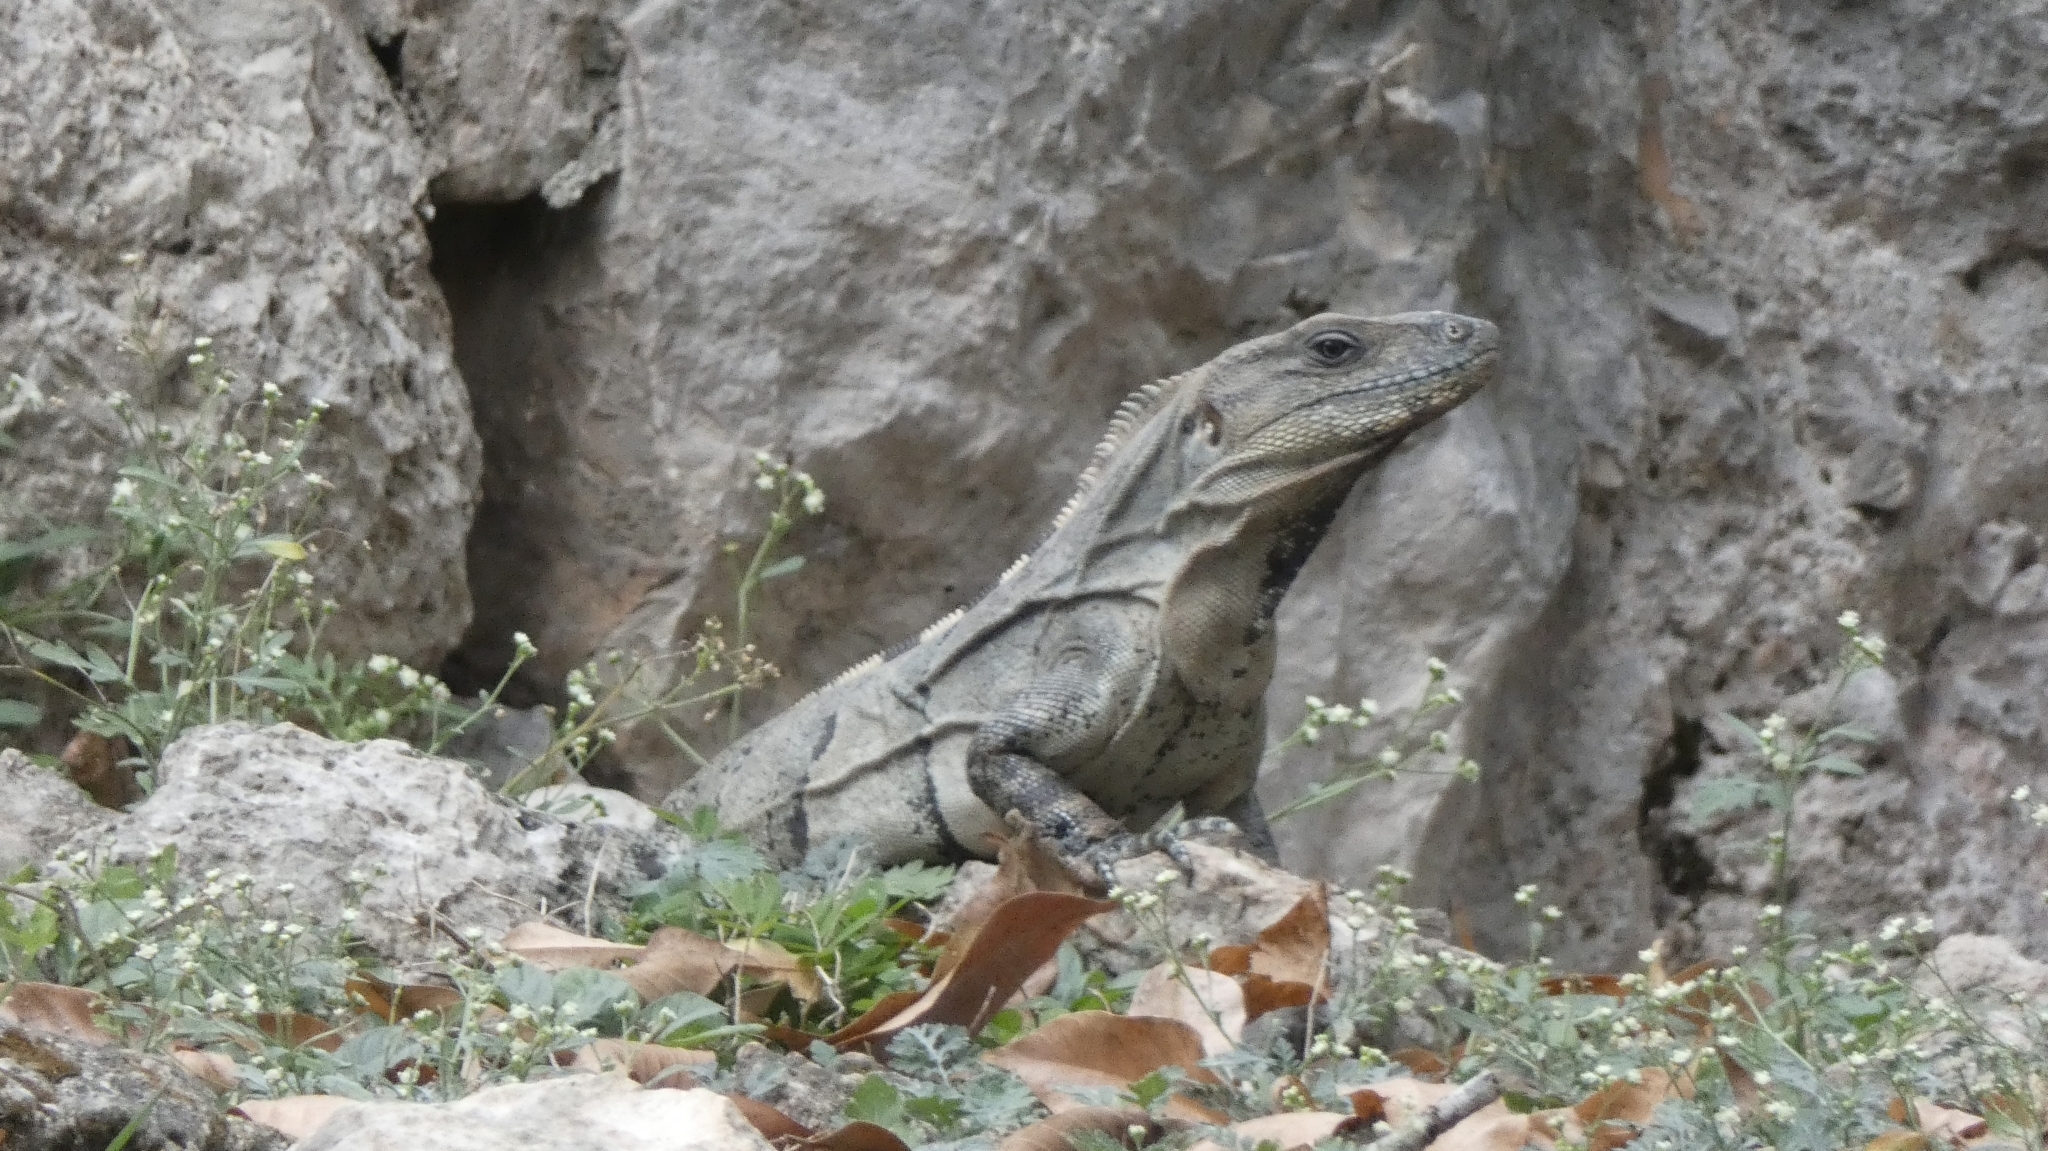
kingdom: Animalia
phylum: Chordata
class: Squamata
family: Iguanidae
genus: Ctenosaura
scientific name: Ctenosaura similis
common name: Black spiny-tailed iguana
